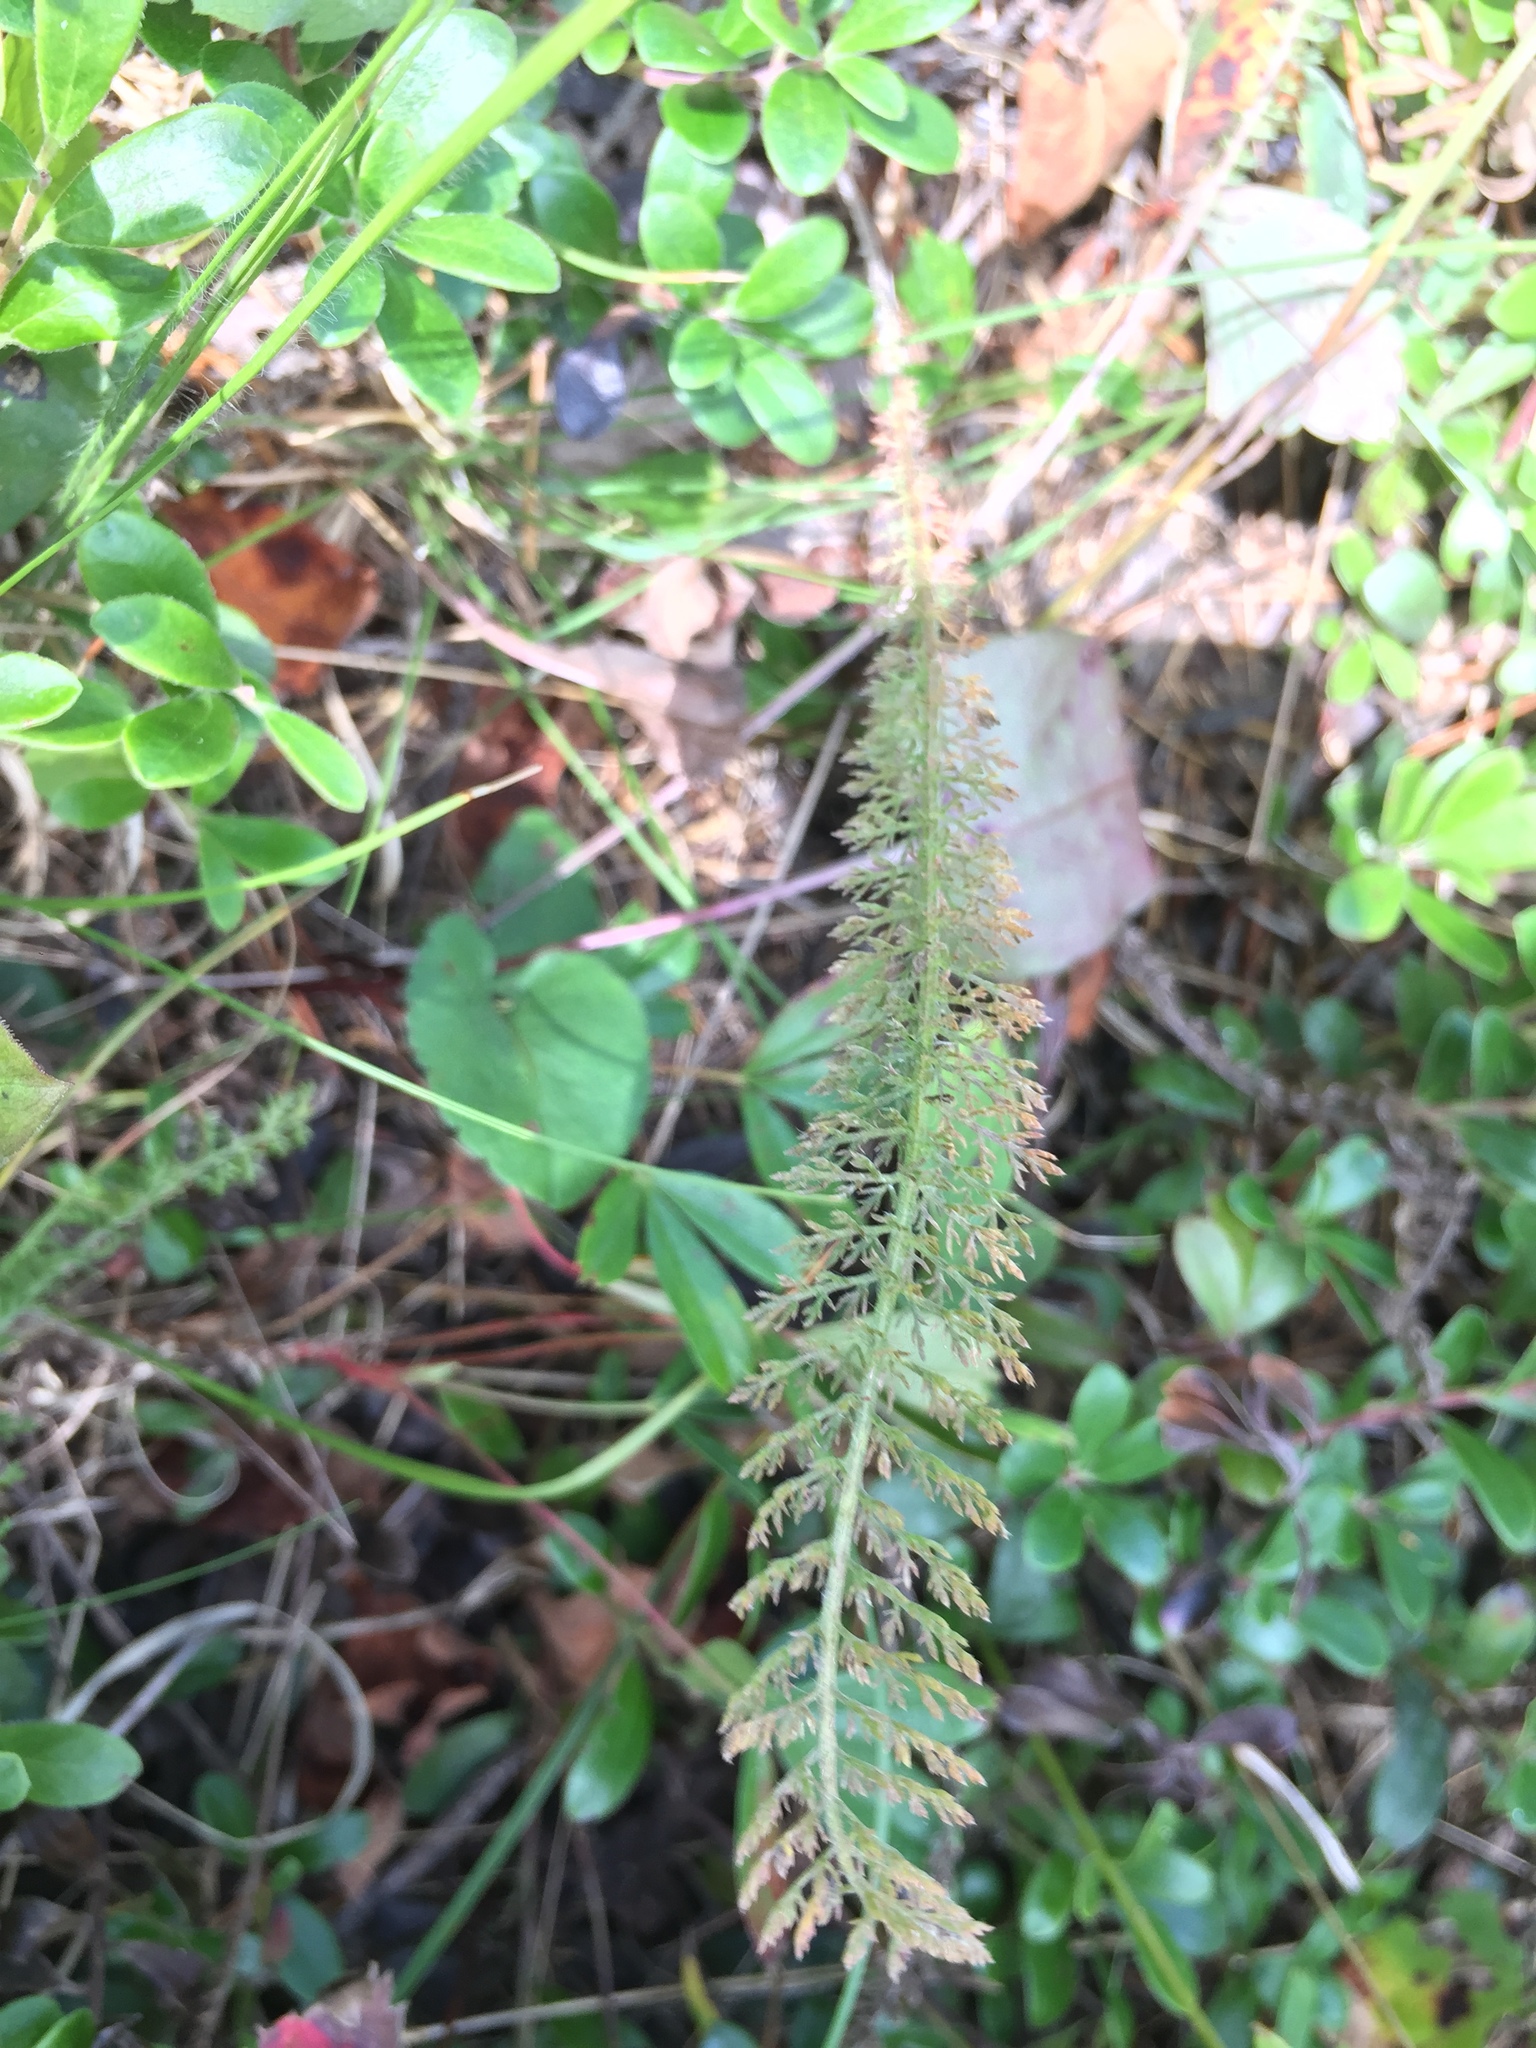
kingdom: Plantae
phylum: Tracheophyta
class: Magnoliopsida
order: Asterales
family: Asteraceae
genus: Achillea
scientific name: Achillea millefolium
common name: Yarrow
